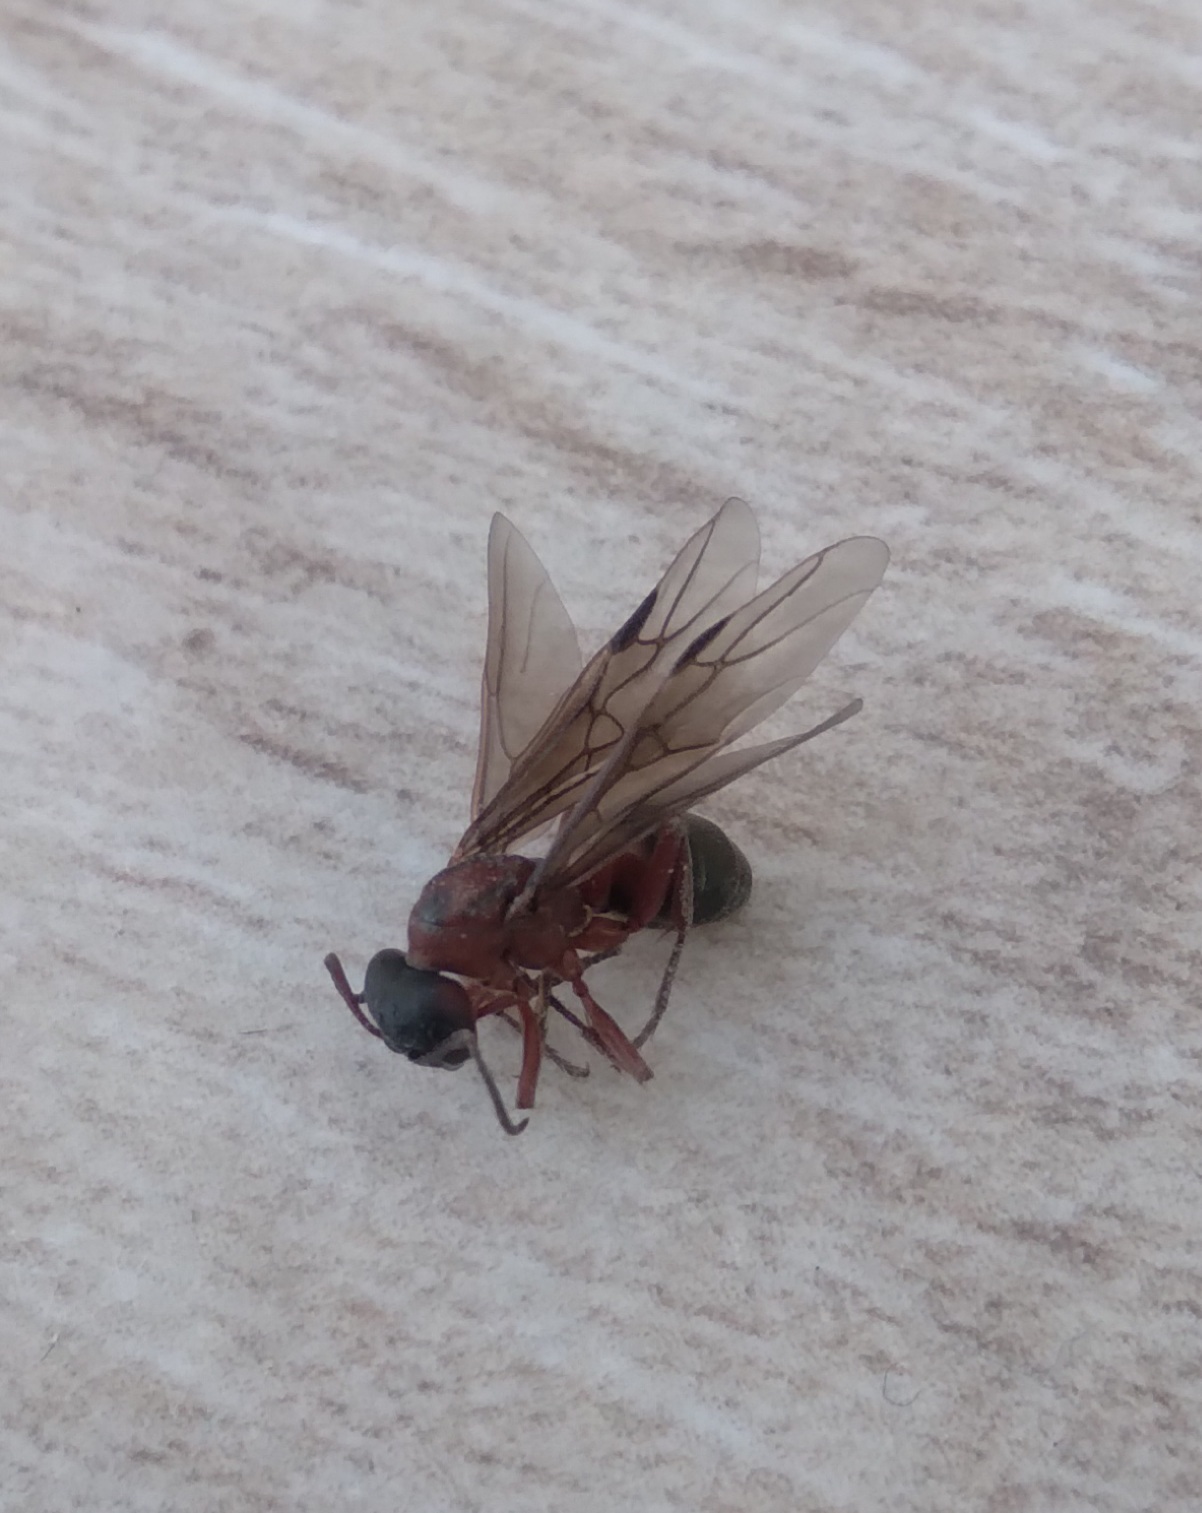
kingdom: Animalia
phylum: Arthropoda
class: Insecta
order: Hymenoptera
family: Formicidae
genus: Formica
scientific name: Formica sanguinea
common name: Blood-red ant
